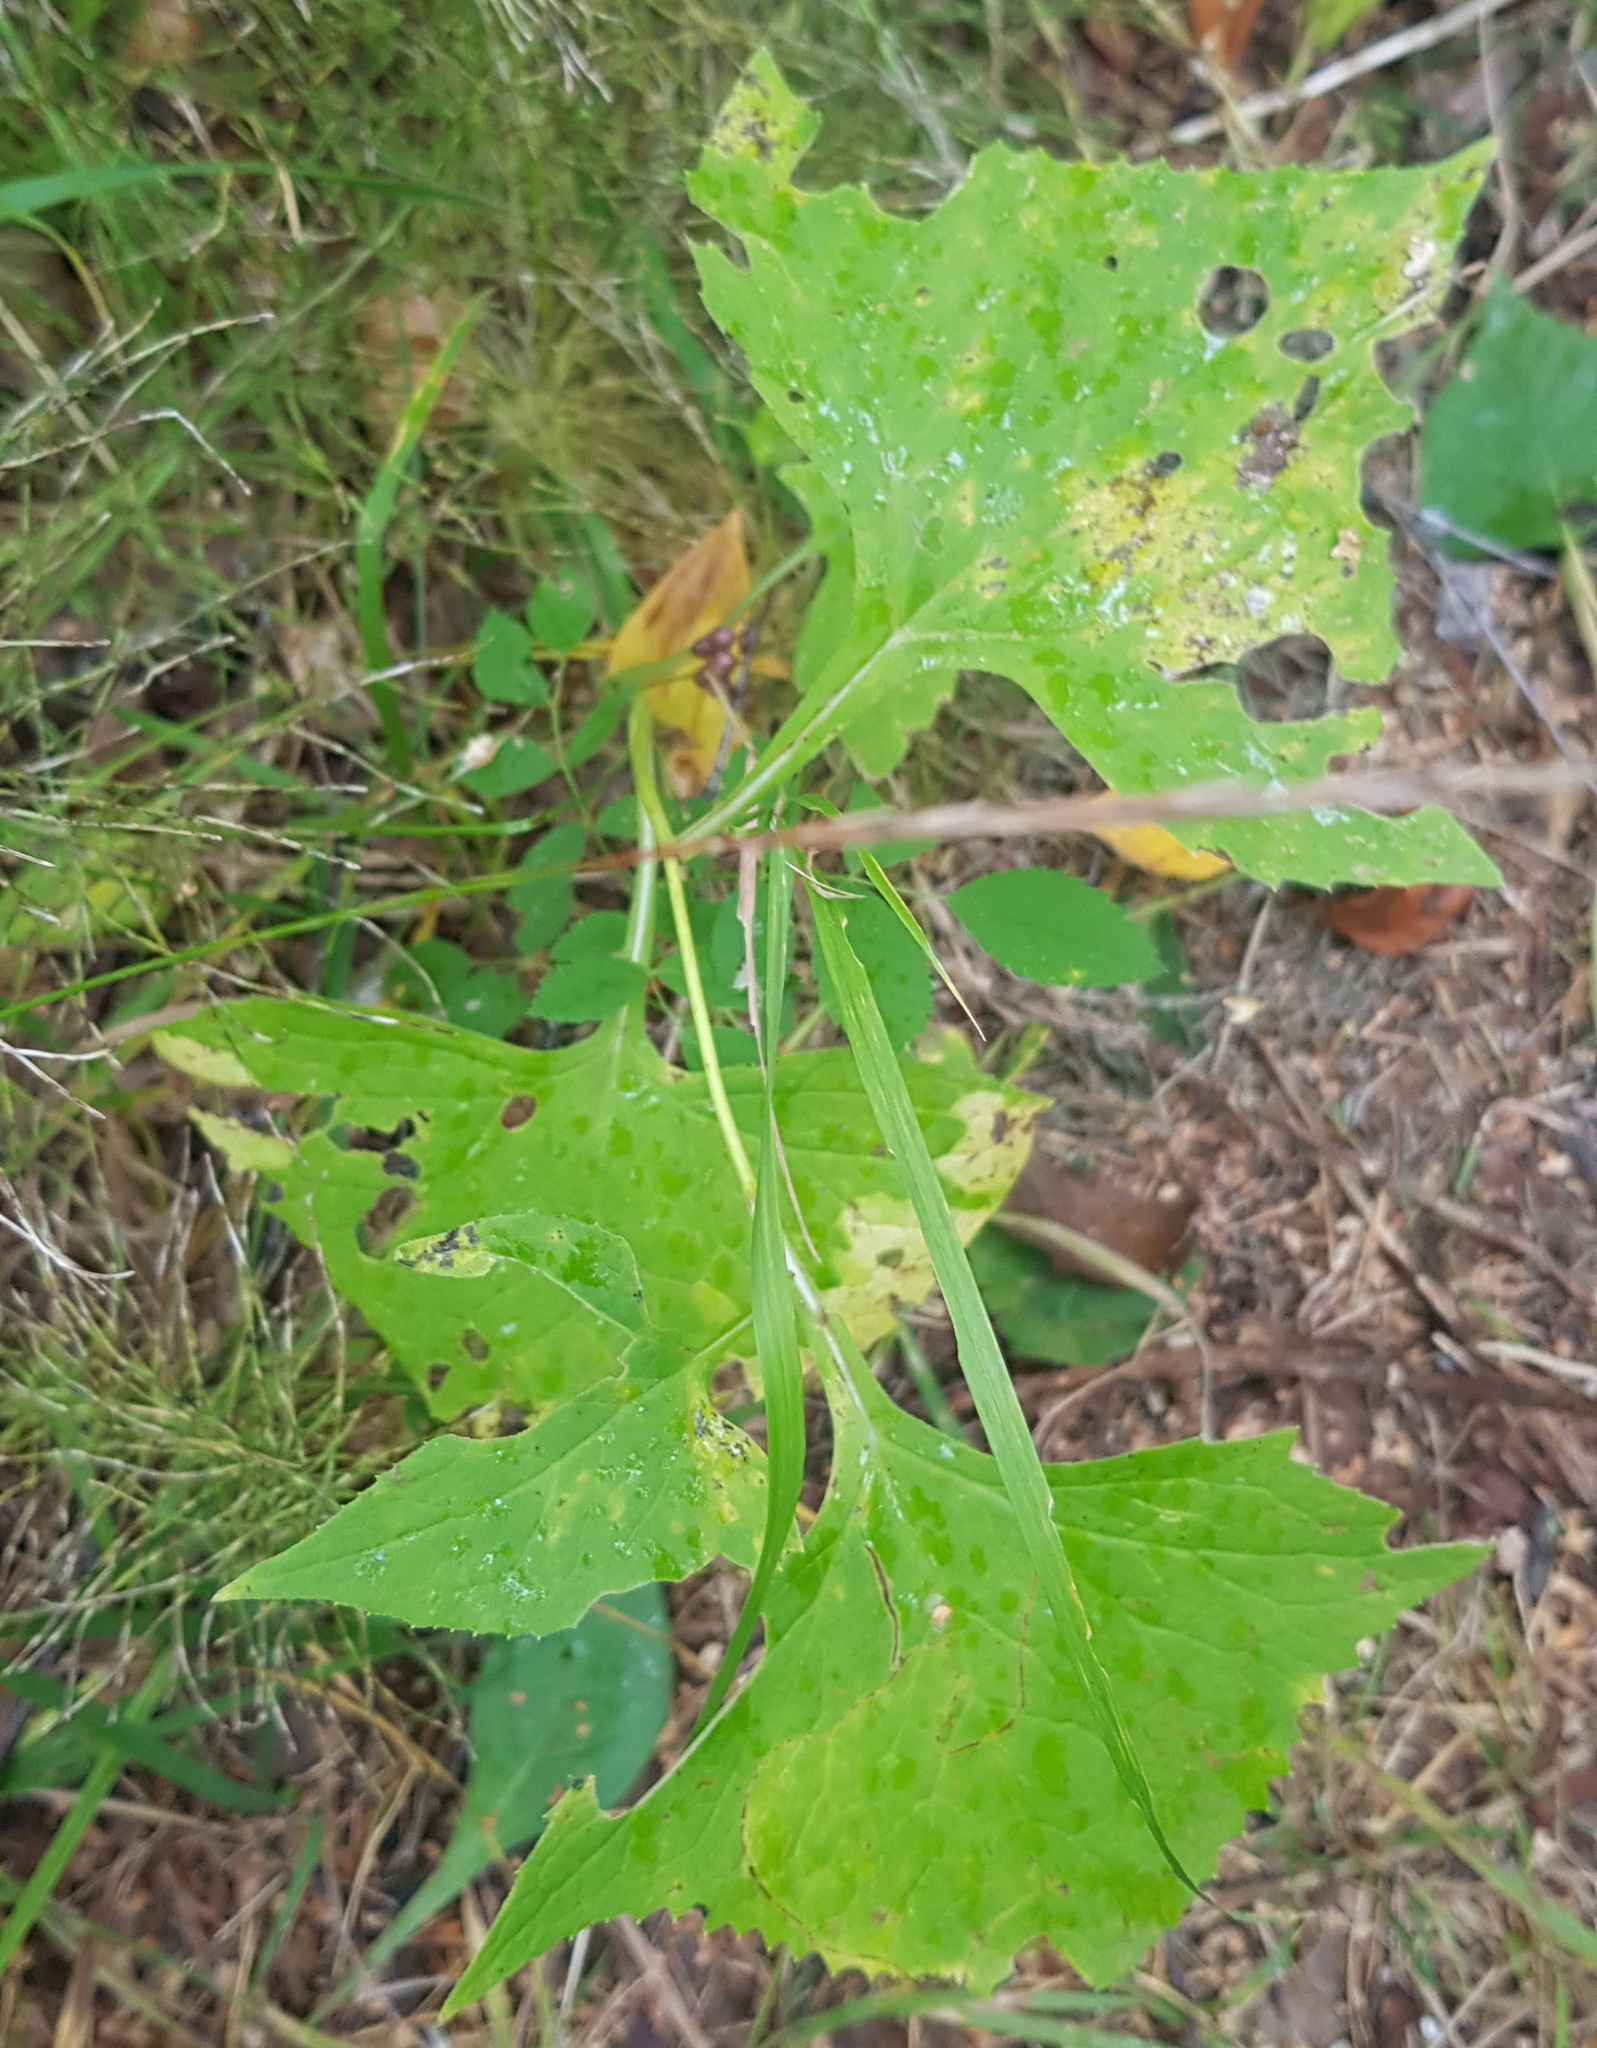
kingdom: Plantae
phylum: Tracheophyta
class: Magnoliopsida
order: Asterales
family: Asteraceae
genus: Parasenecio
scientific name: Parasenecio hastatus
